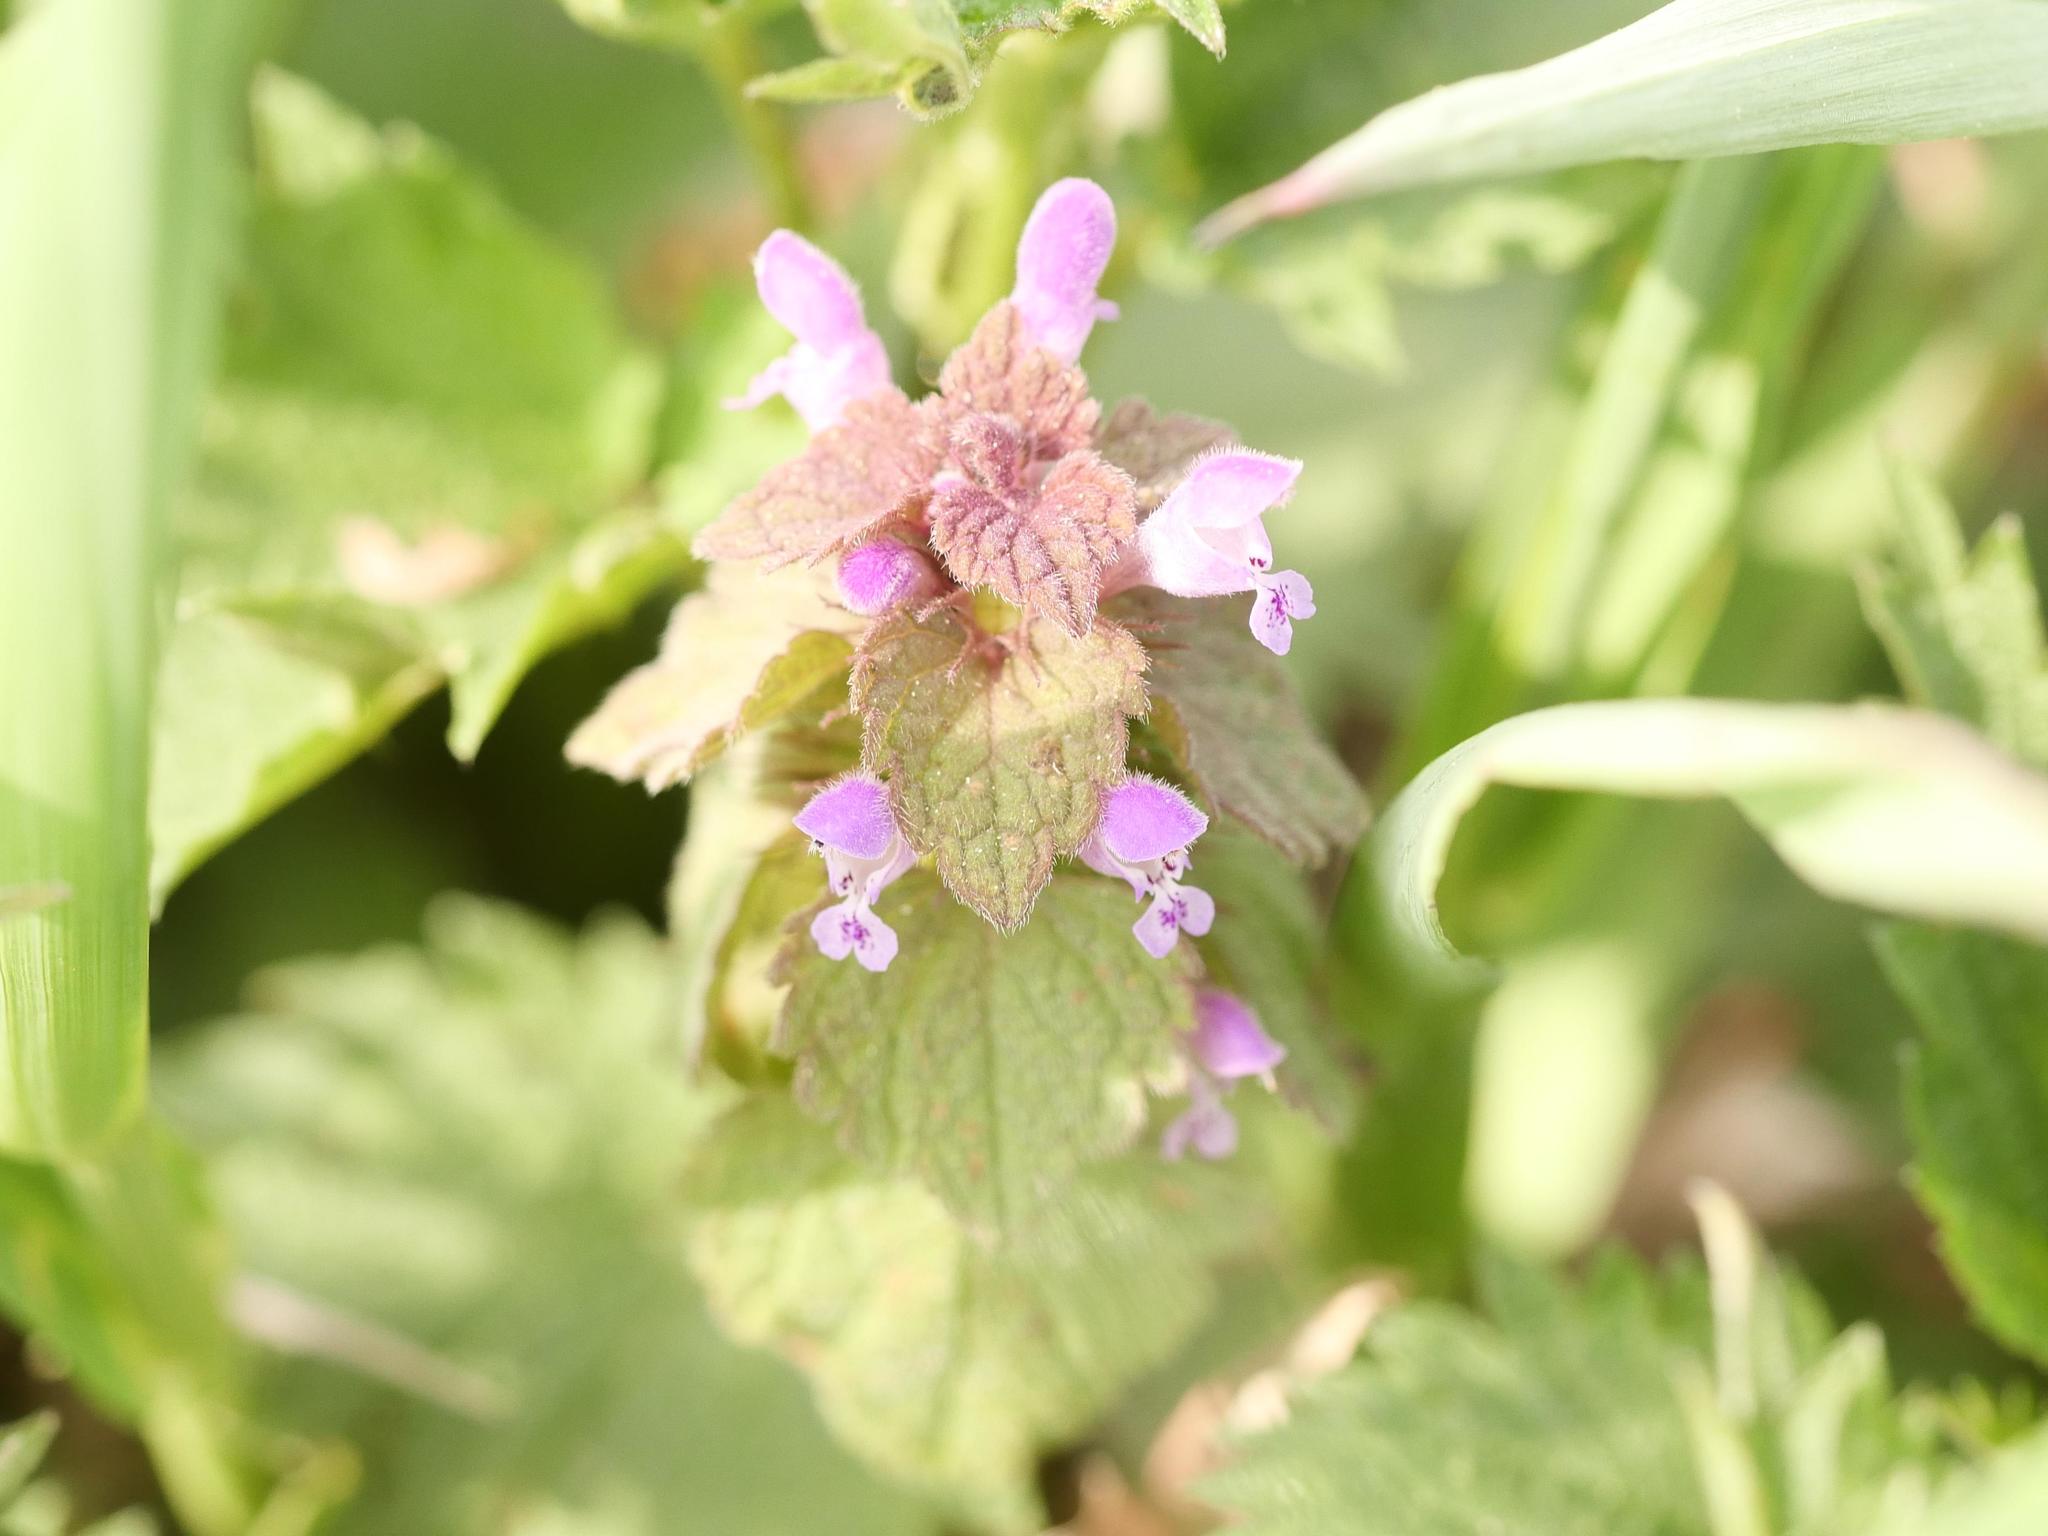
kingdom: Plantae
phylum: Tracheophyta
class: Magnoliopsida
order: Lamiales
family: Lamiaceae
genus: Lamium
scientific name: Lamium purpureum
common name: Red dead-nettle
